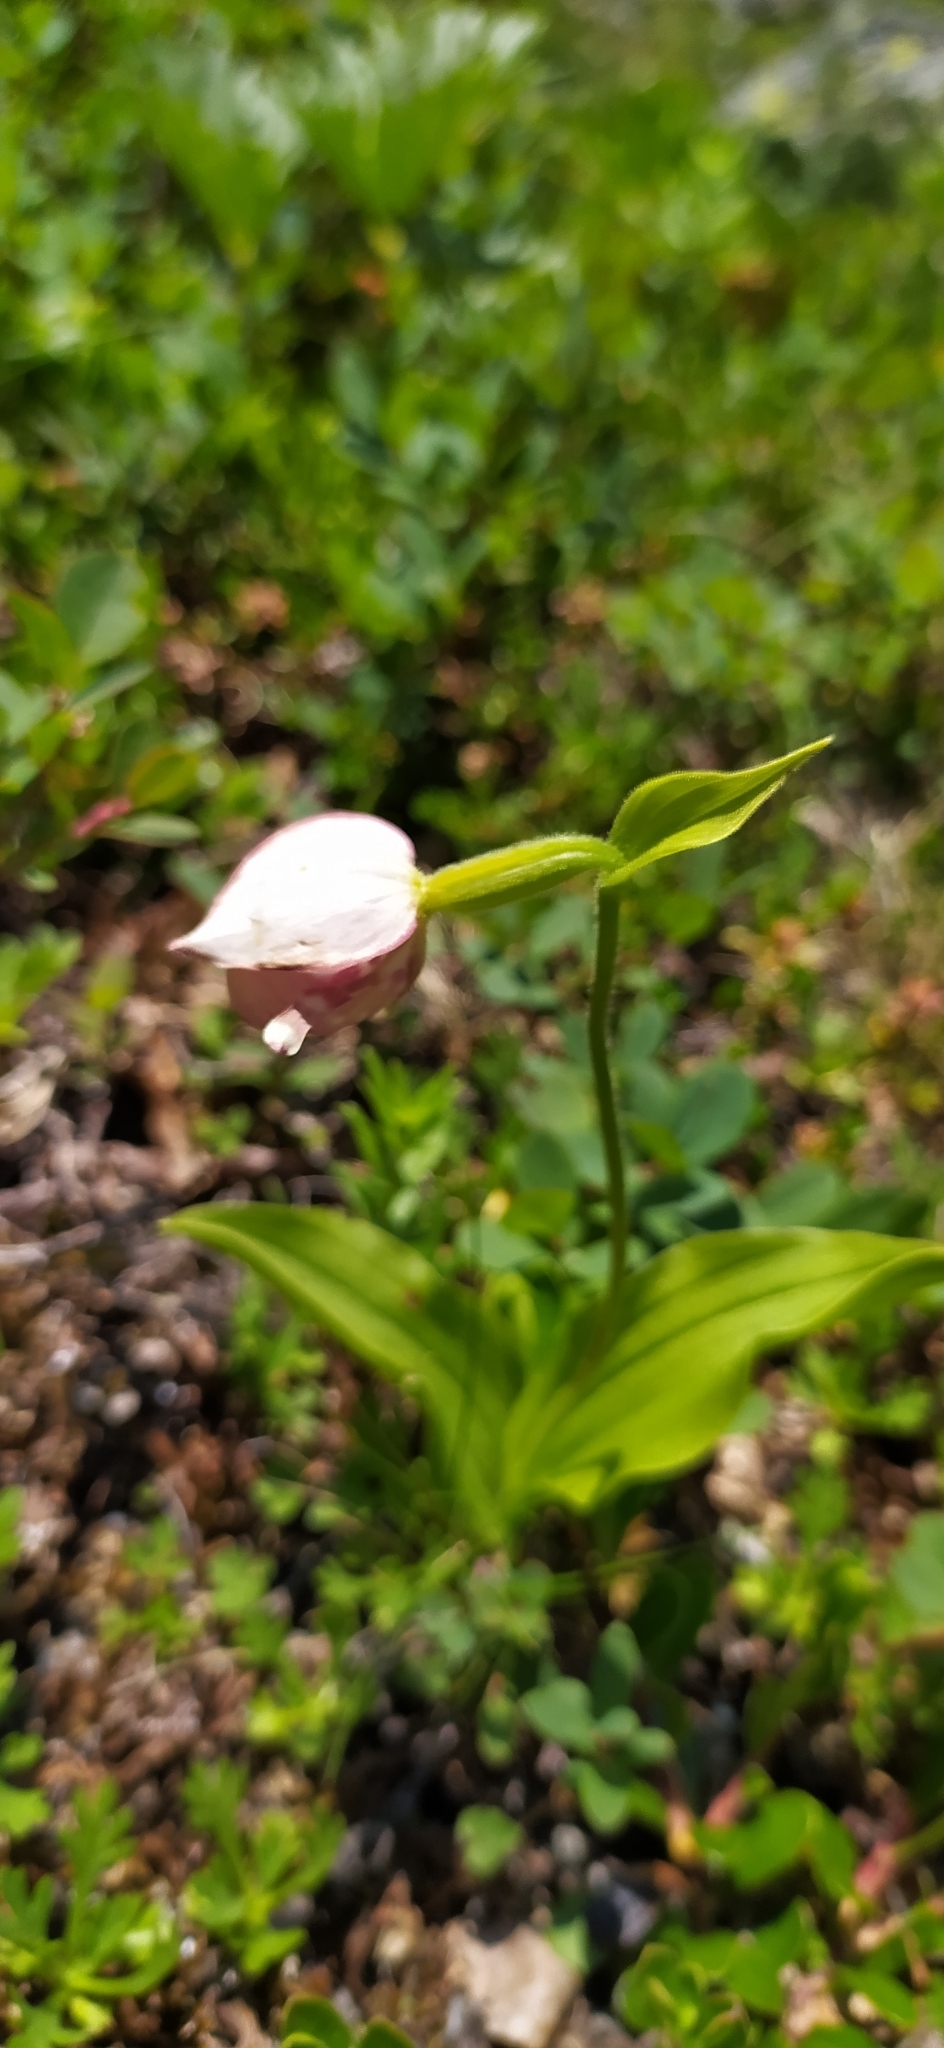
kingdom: Plantae
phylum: Tracheophyta
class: Liliopsida
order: Asparagales
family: Orchidaceae
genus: Cypripedium
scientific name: Cypripedium guttatum
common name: Pink lady slipper
